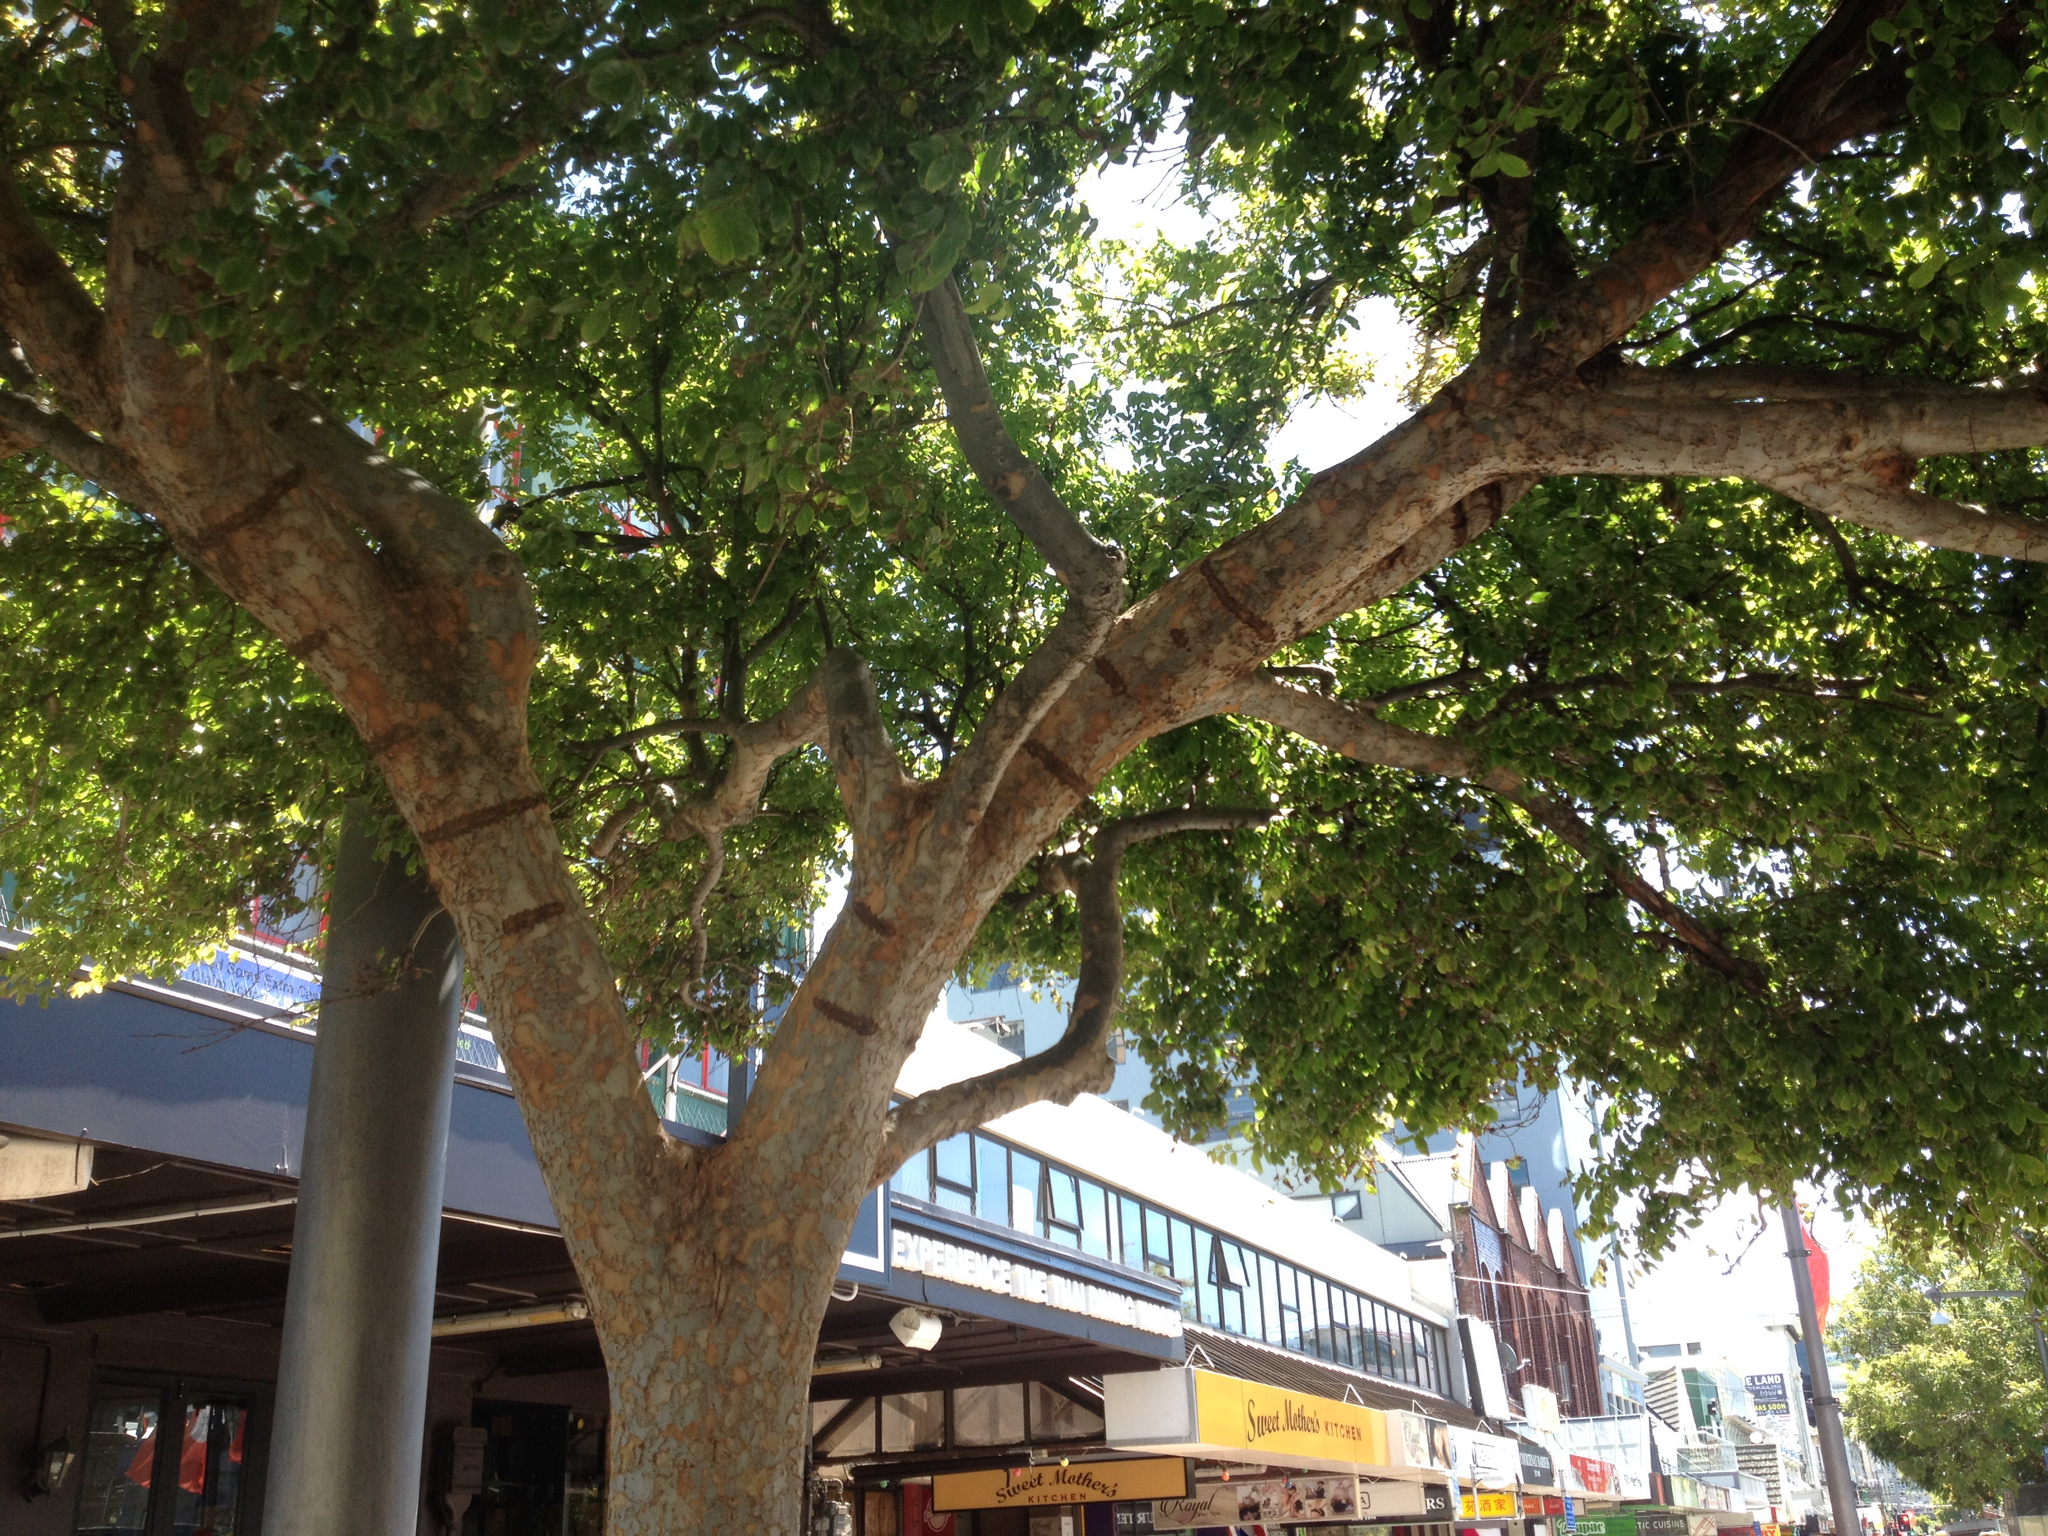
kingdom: Animalia
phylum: Chordata
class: Aves
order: Psittaciformes
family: Psittacidae
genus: Nestor
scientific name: Nestor meridionalis
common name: New zealand kaka
